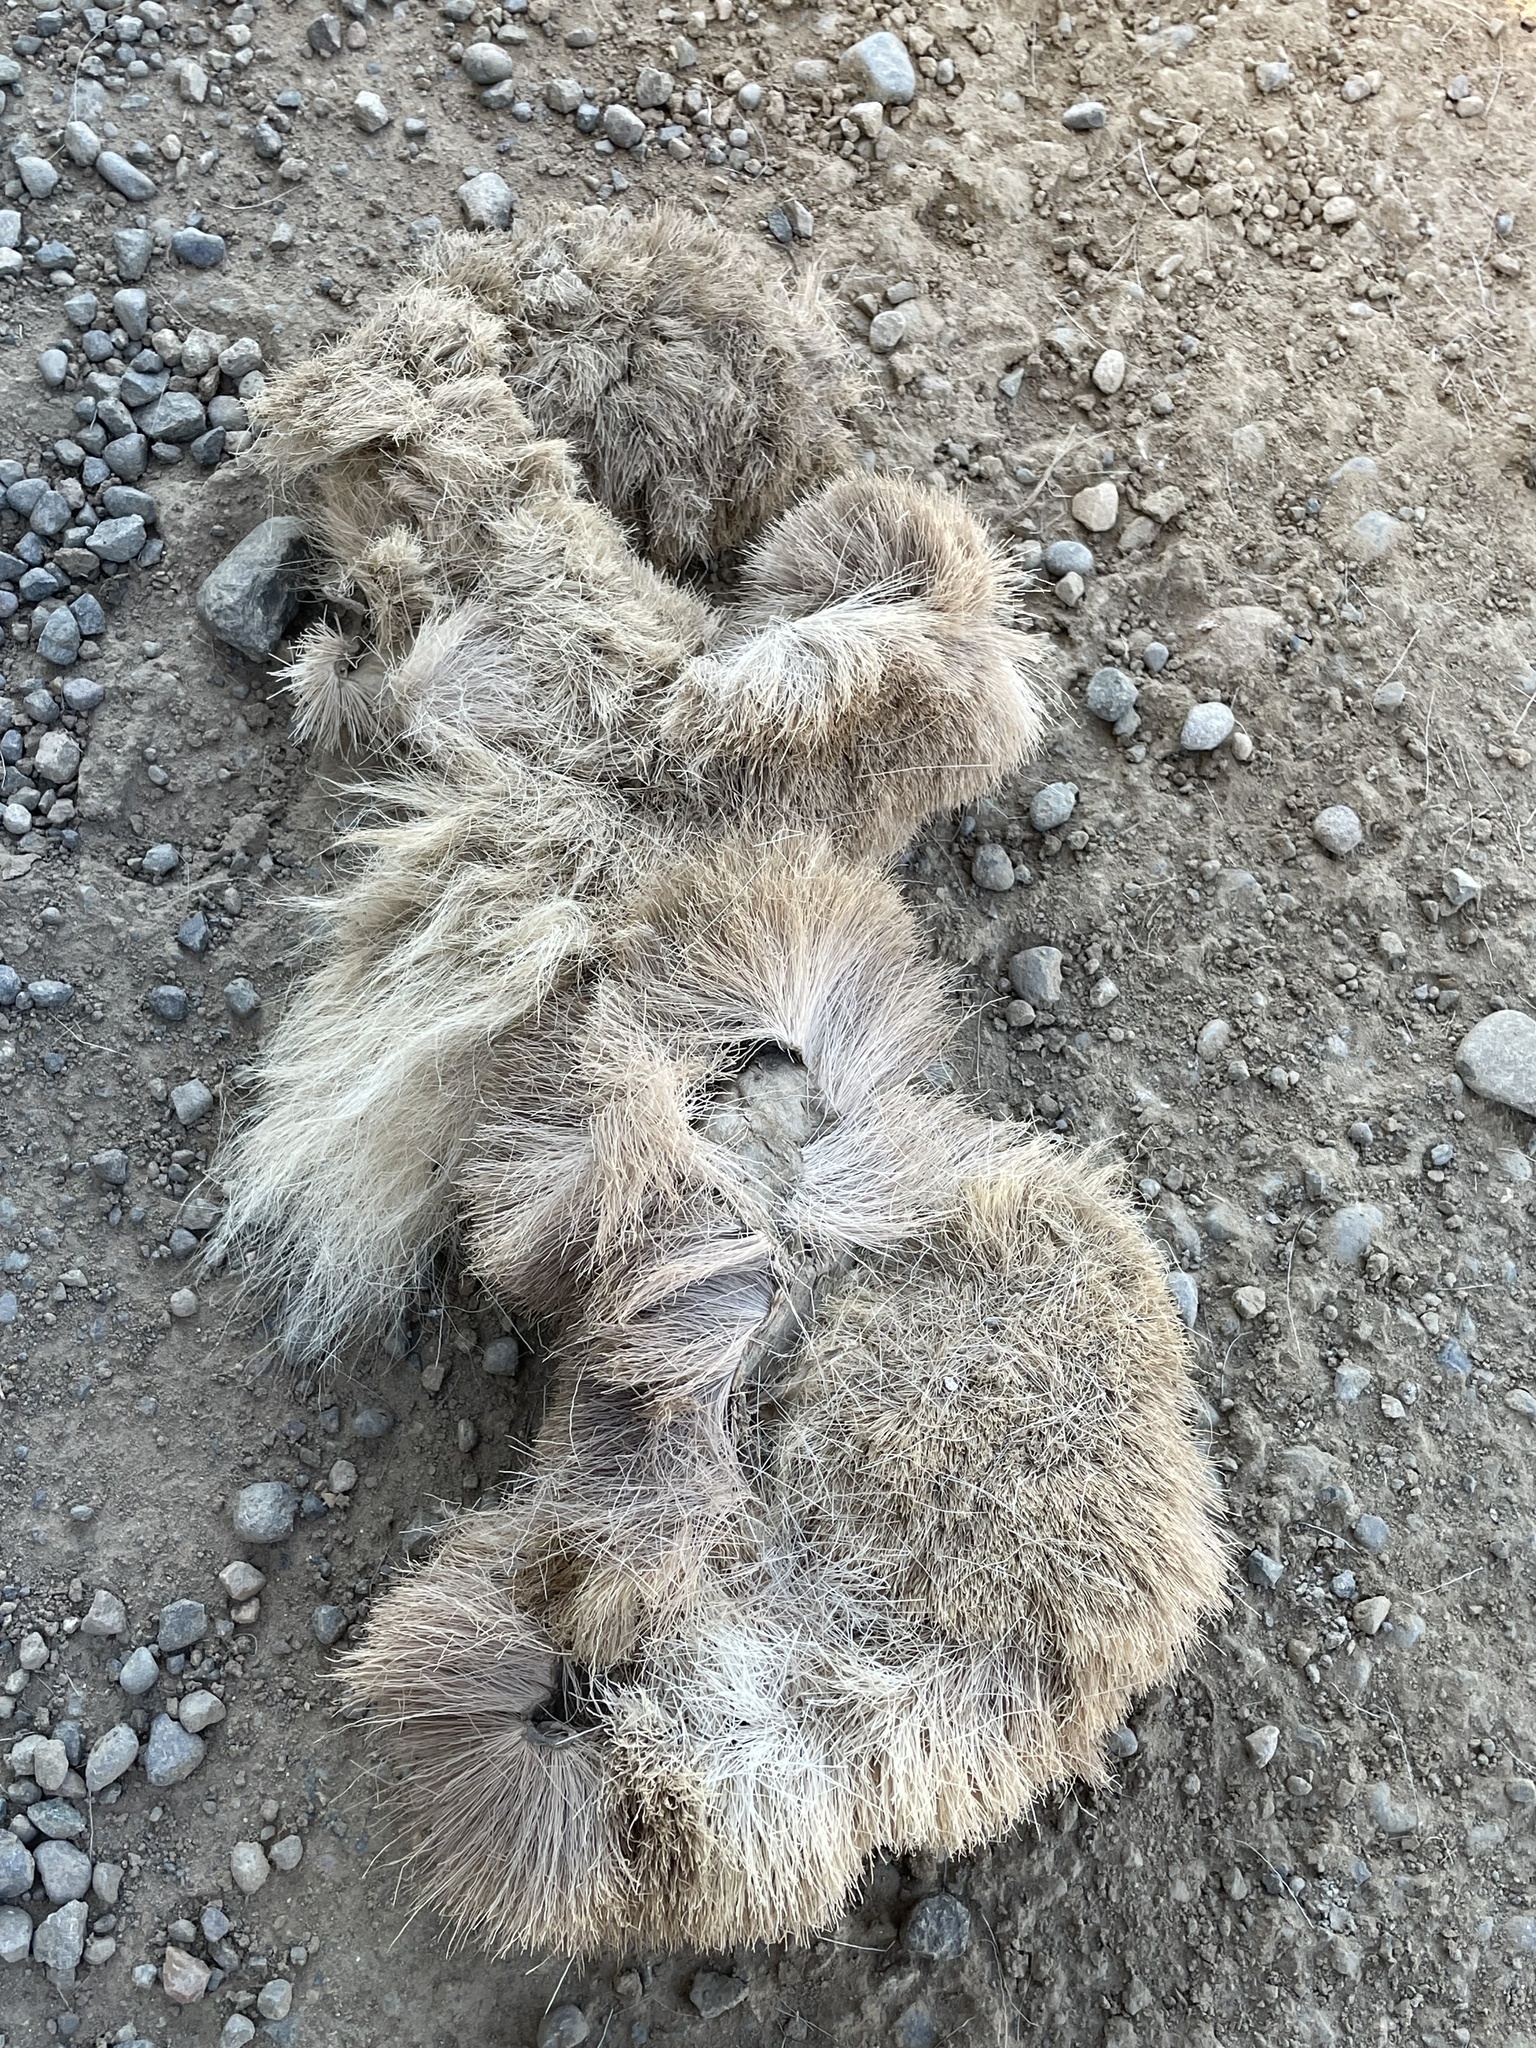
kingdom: Animalia
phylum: Chordata
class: Mammalia
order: Artiodactyla
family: Cervidae
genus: Odocoileus
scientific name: Odocoileus hemionus
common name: Mule deer
